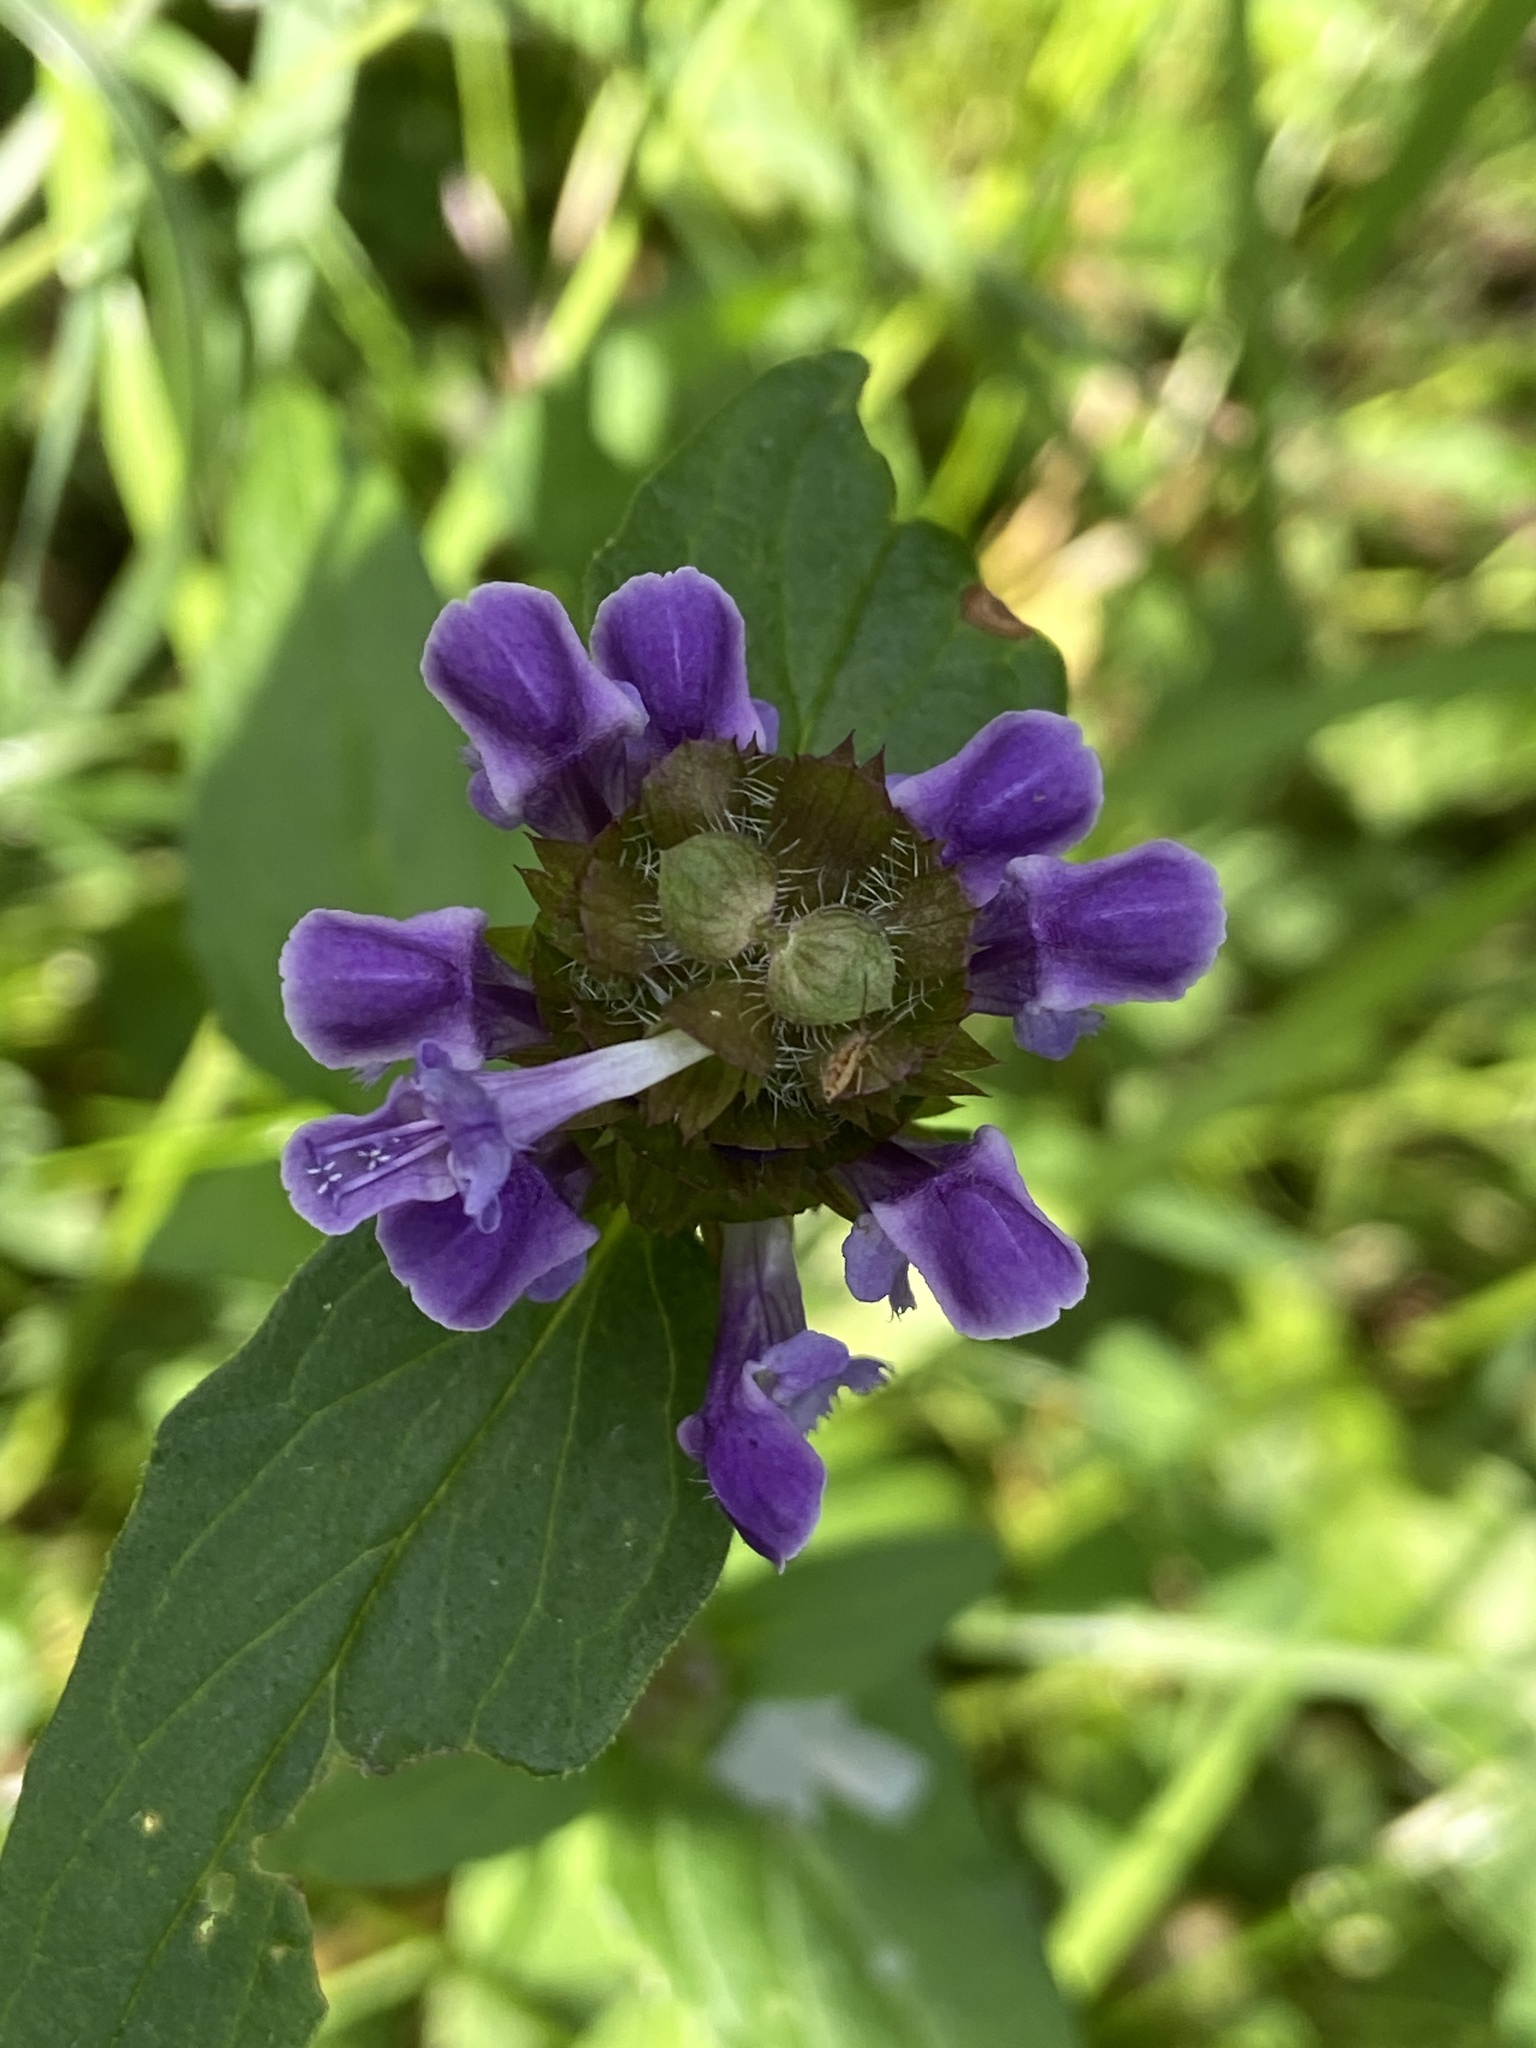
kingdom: Plantae
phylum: Tracheophyta
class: Magnoliopsida
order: Lamiales
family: Lamiaceae
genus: Prunella
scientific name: Prunella vulgaris
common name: Heal-all
